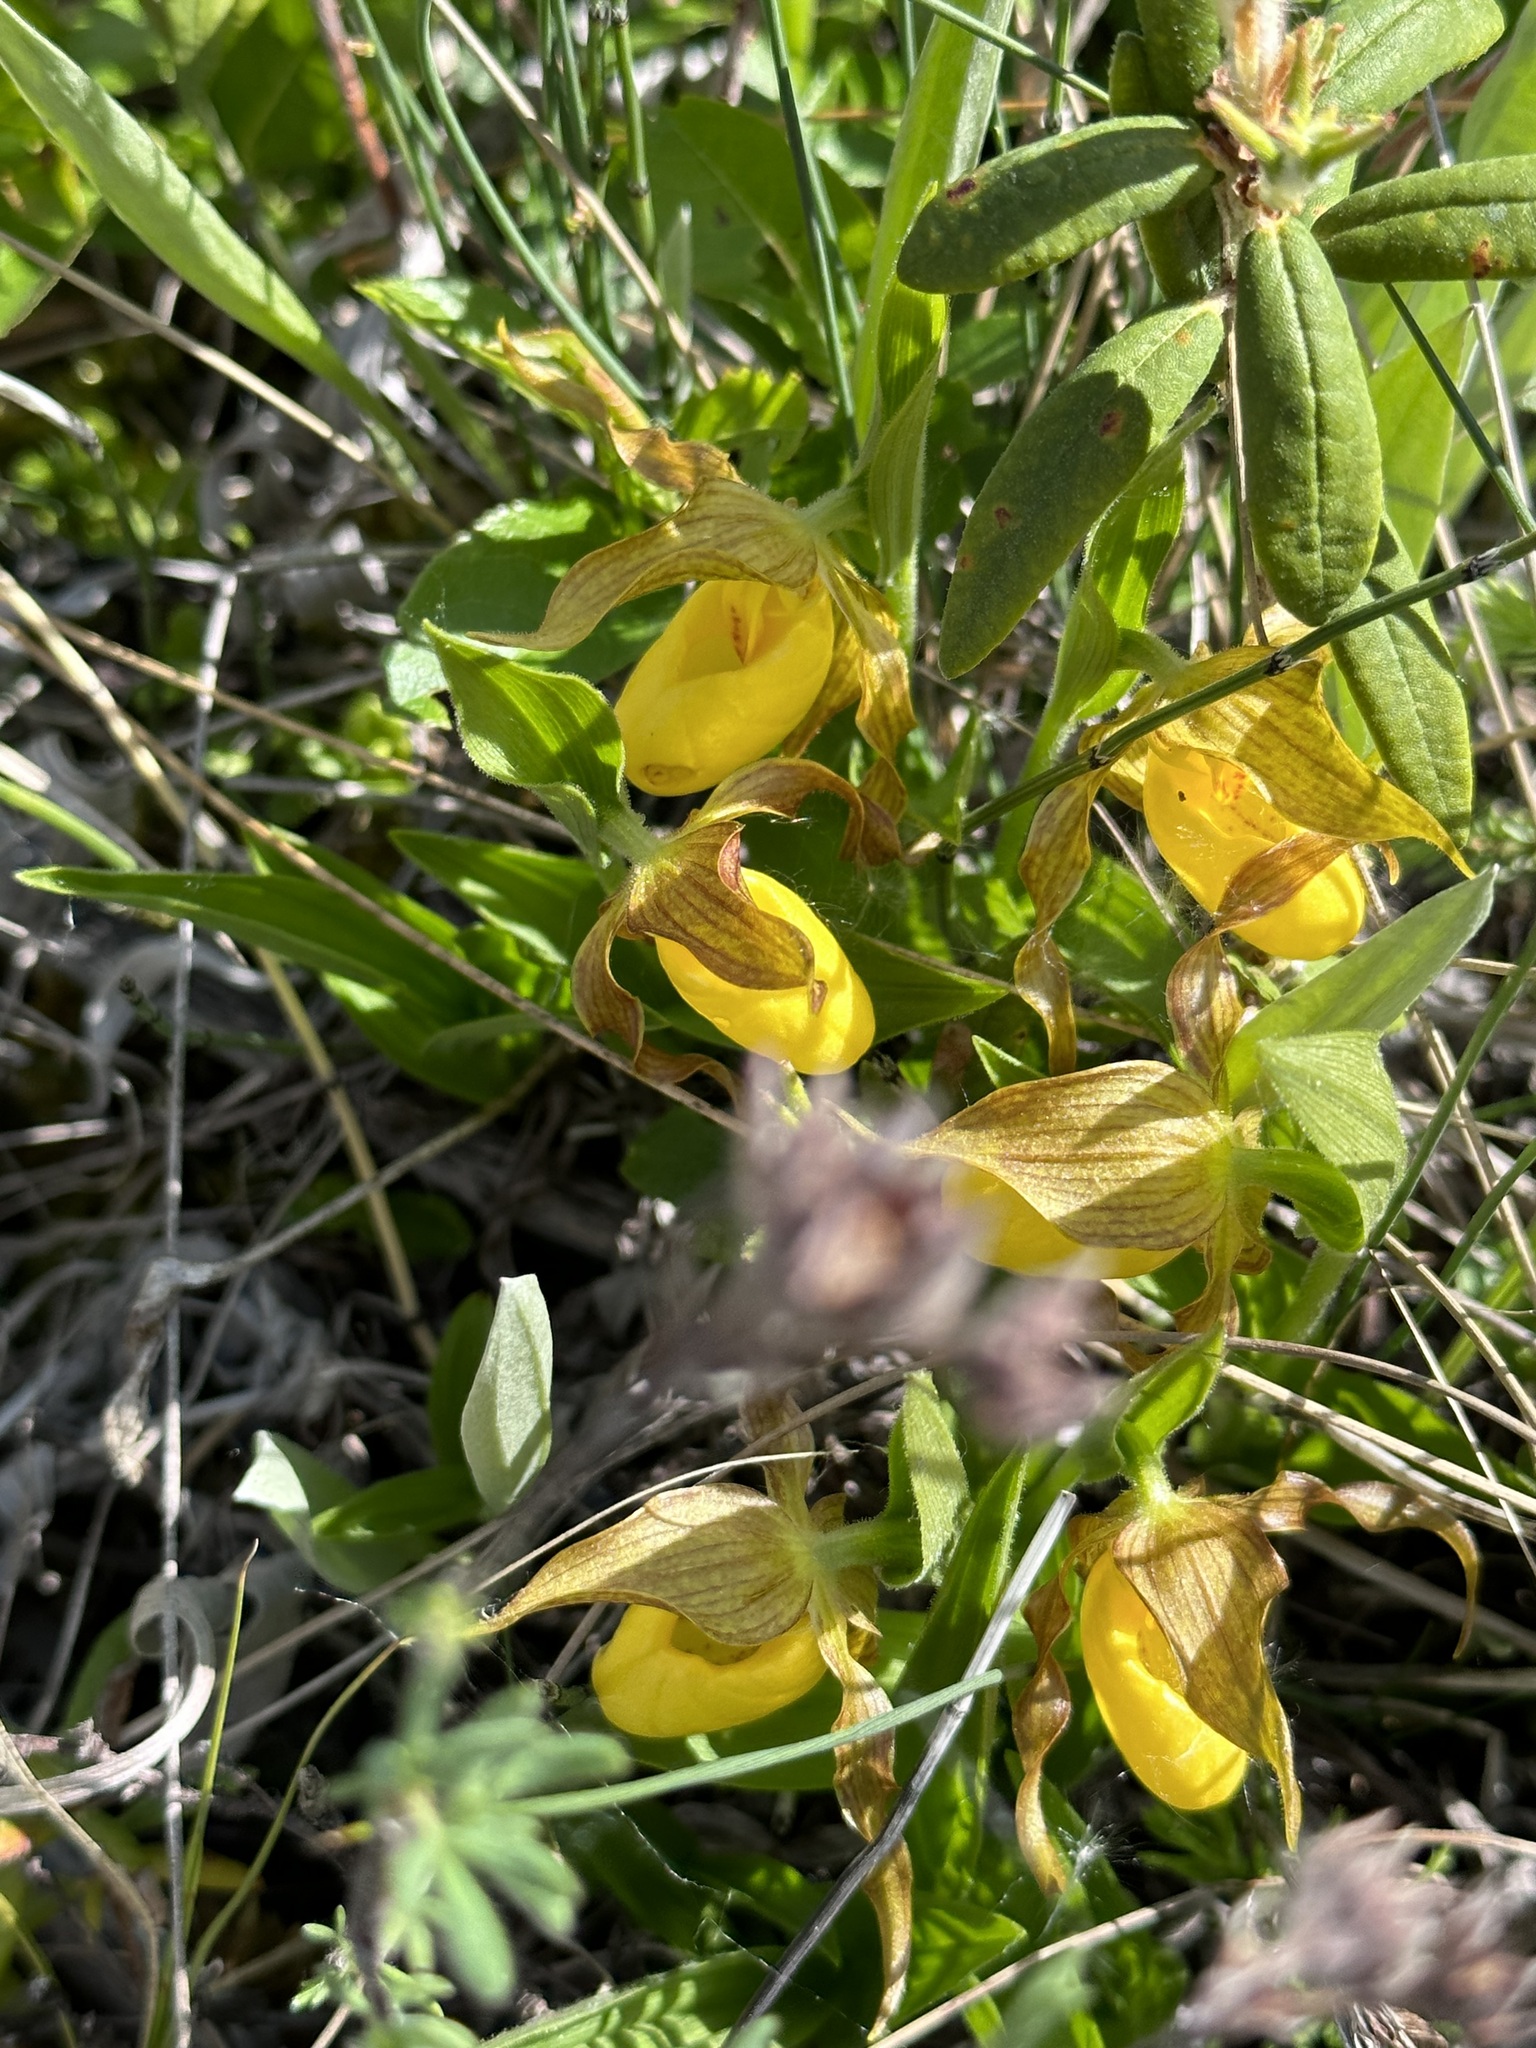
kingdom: Plantae
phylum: Tracheophyta
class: Liliopsida
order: Asparagales
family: Orchidaceae
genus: Cypripedium
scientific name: Cypripedium parviflorum
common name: American yellow lady's-slipper
